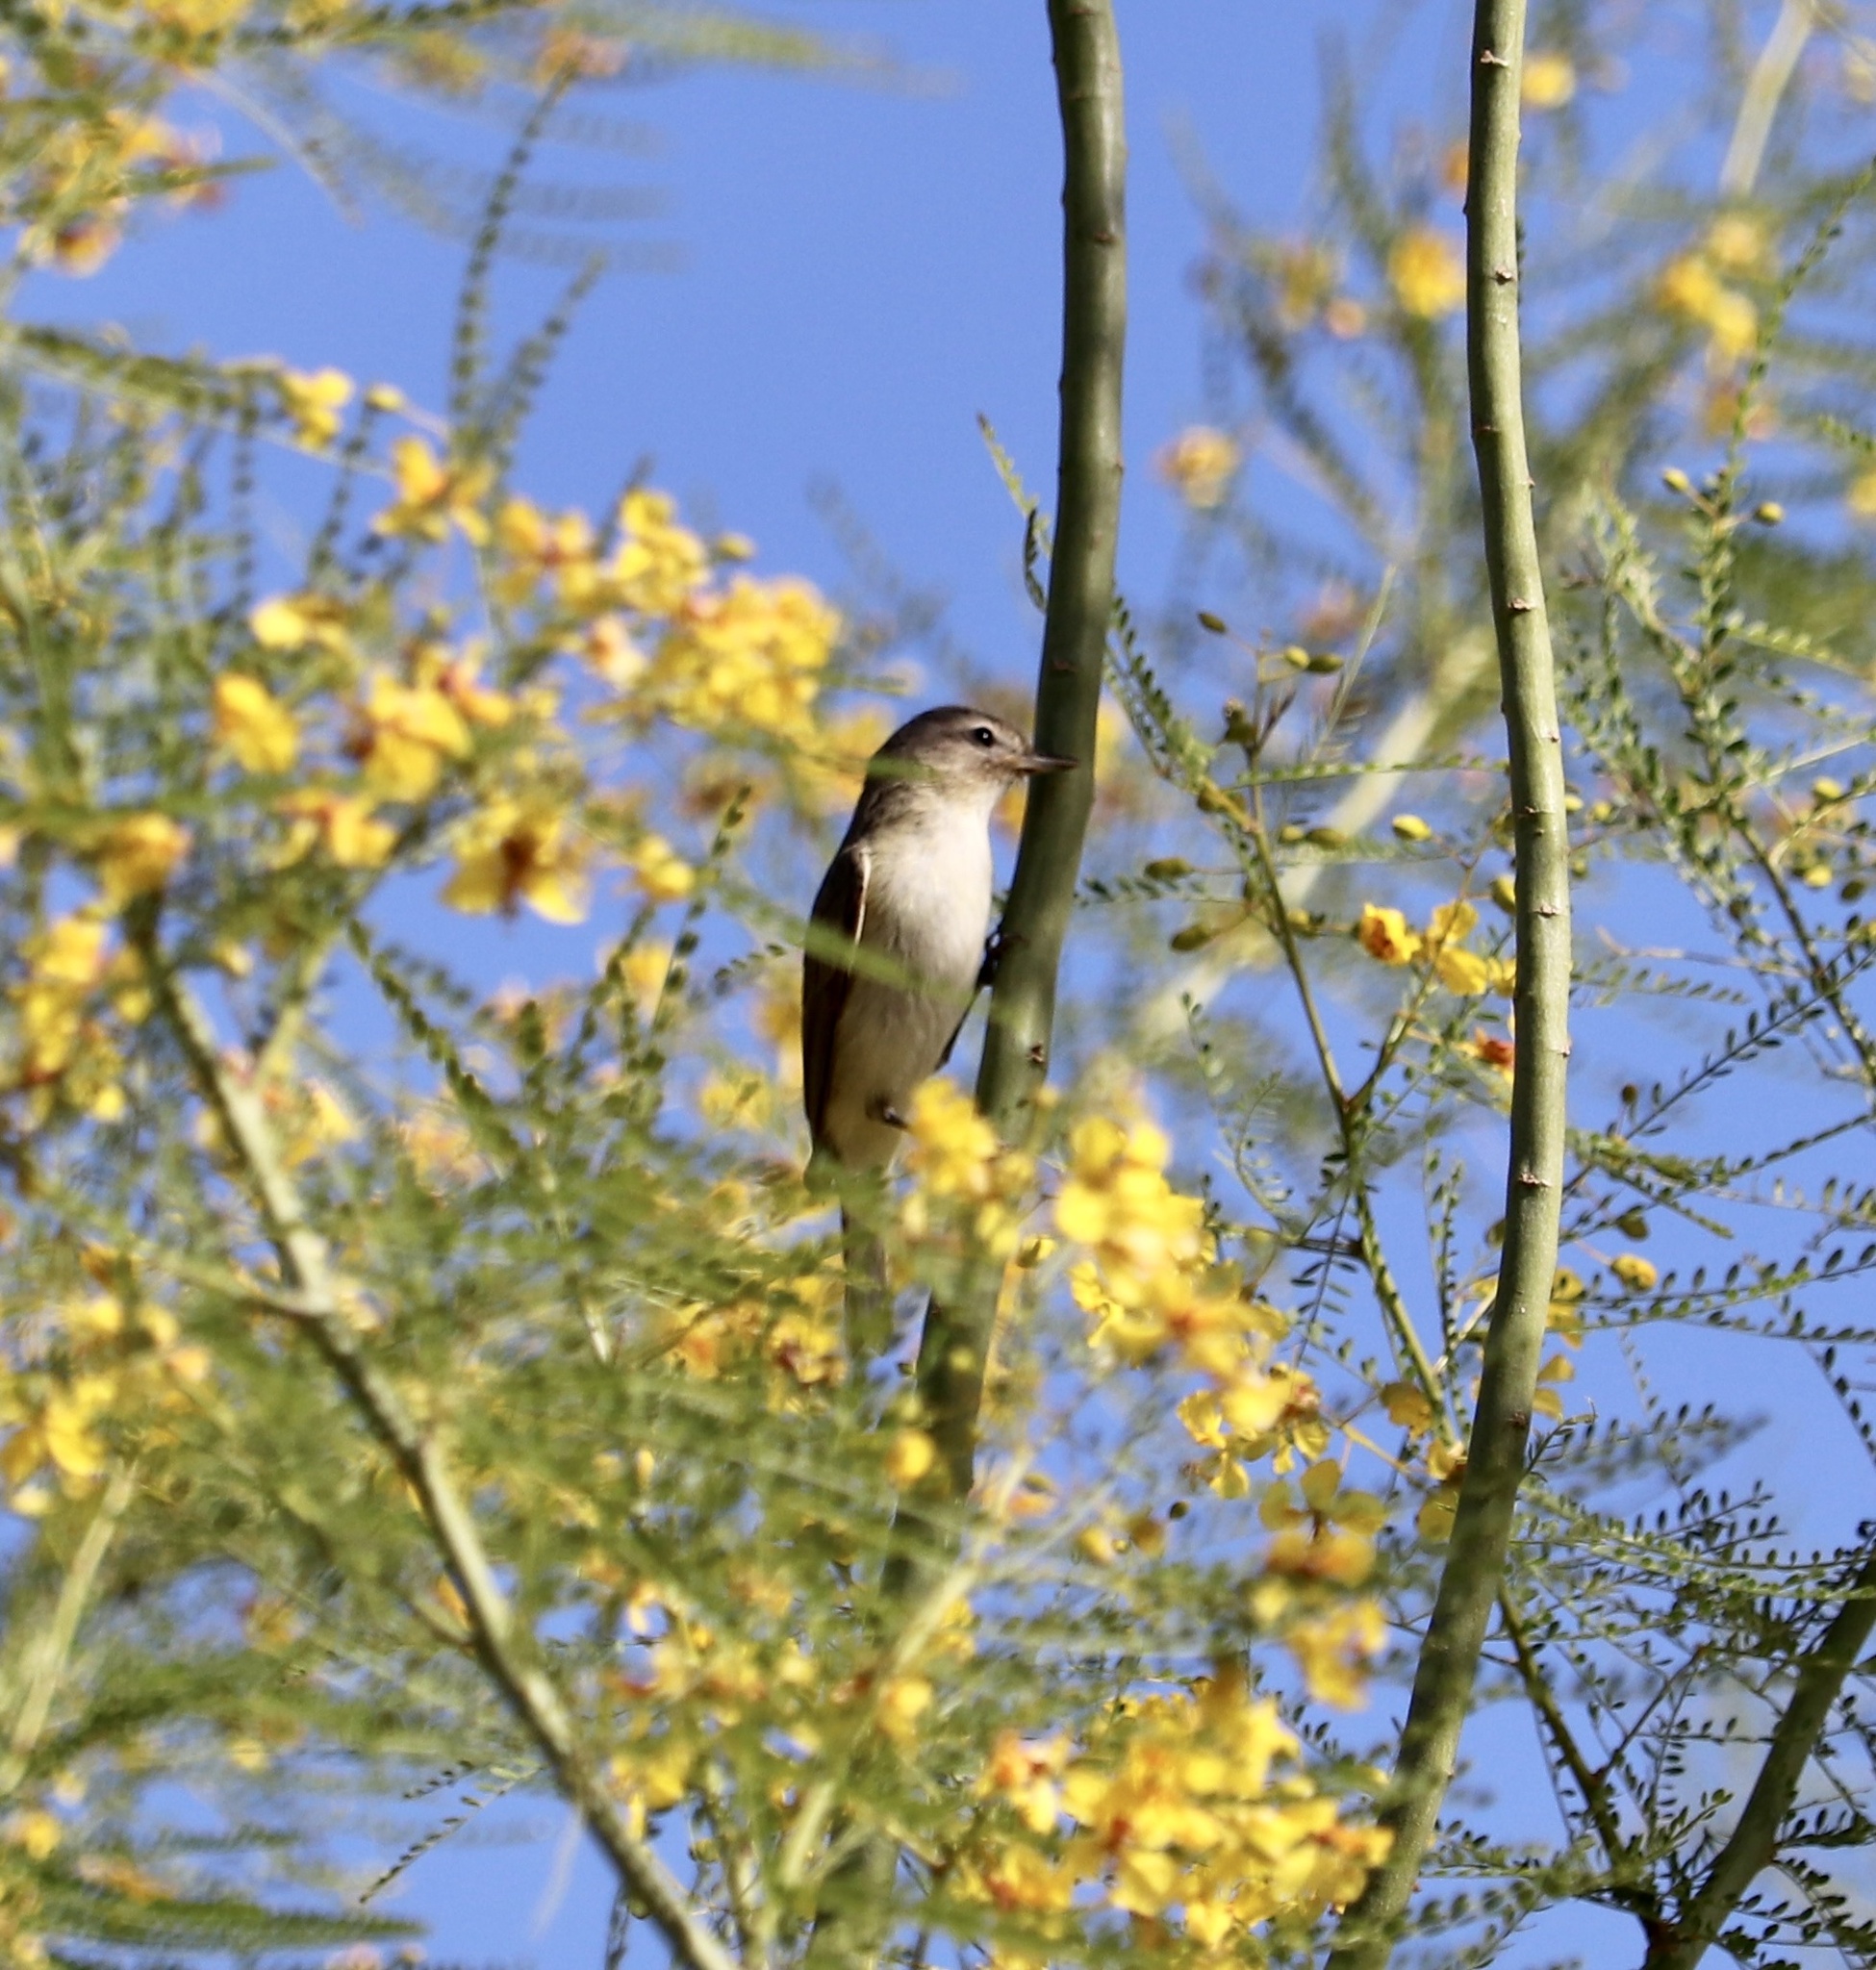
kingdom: Animalia
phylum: Chordata
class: Aves
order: Passeriformes
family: Vireonidae
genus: Vireo
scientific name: Vireo gilvus
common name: Warbling vireo
